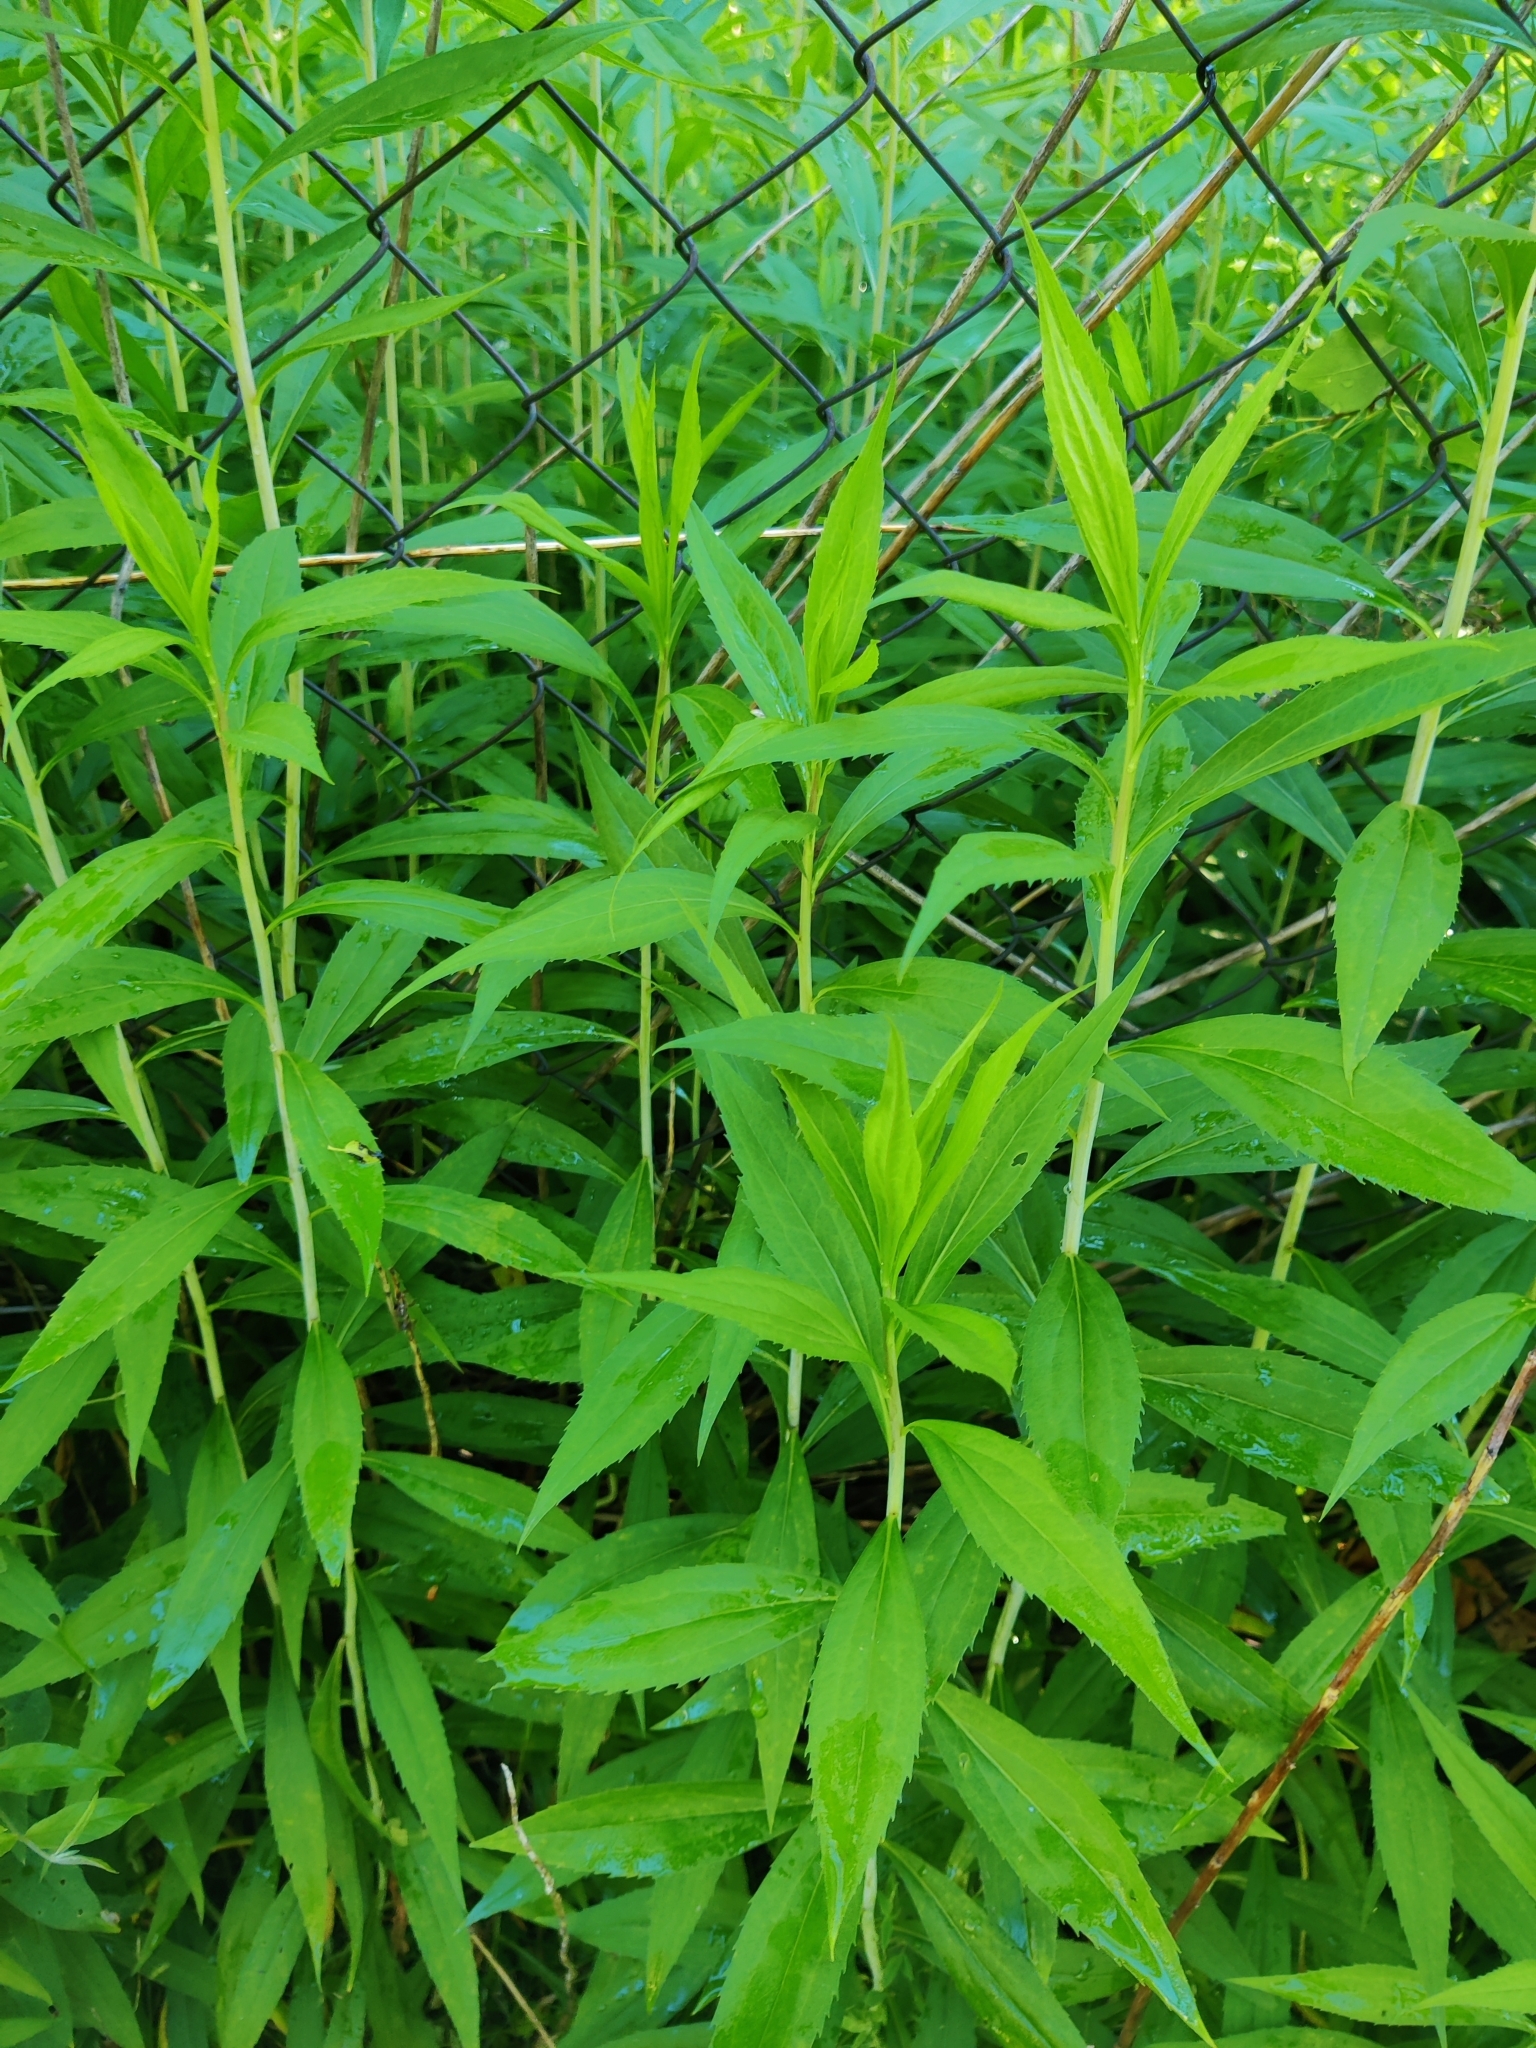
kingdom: Plantae
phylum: Tracheophyta
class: Magnoliopsida
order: Asterales
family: Asteraceae
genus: Solidago
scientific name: Solidago gigantea
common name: Giant goldenrod
